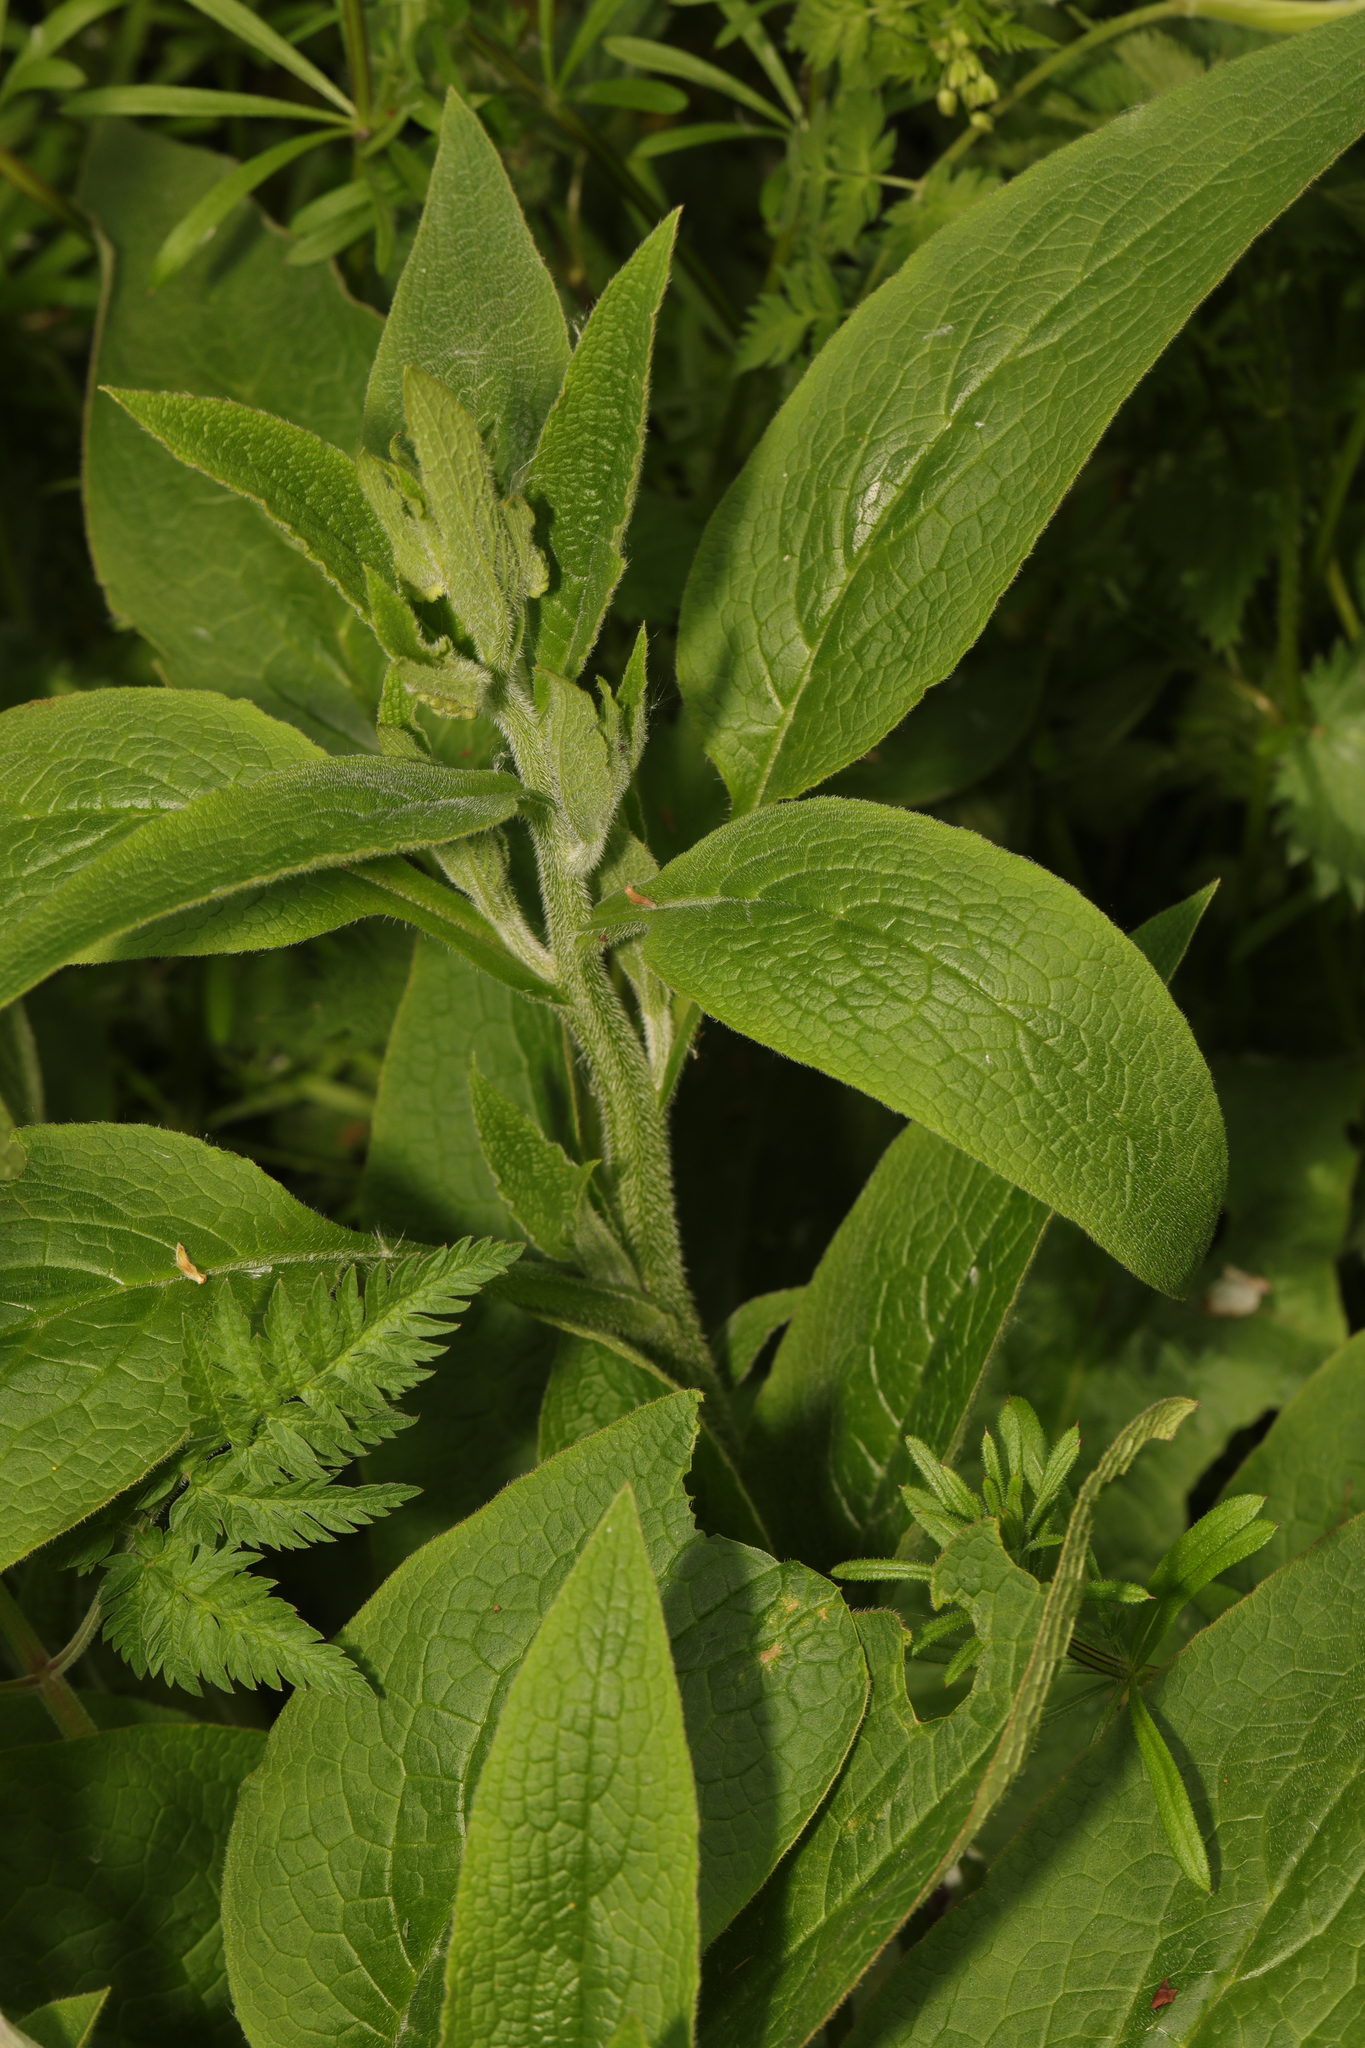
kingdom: Plantae
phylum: Tracheophyta
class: Magnoliopsida
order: Boraginales
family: Boraginaceae
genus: Symphytum
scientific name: Symphytum officinale
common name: Common comfrey
